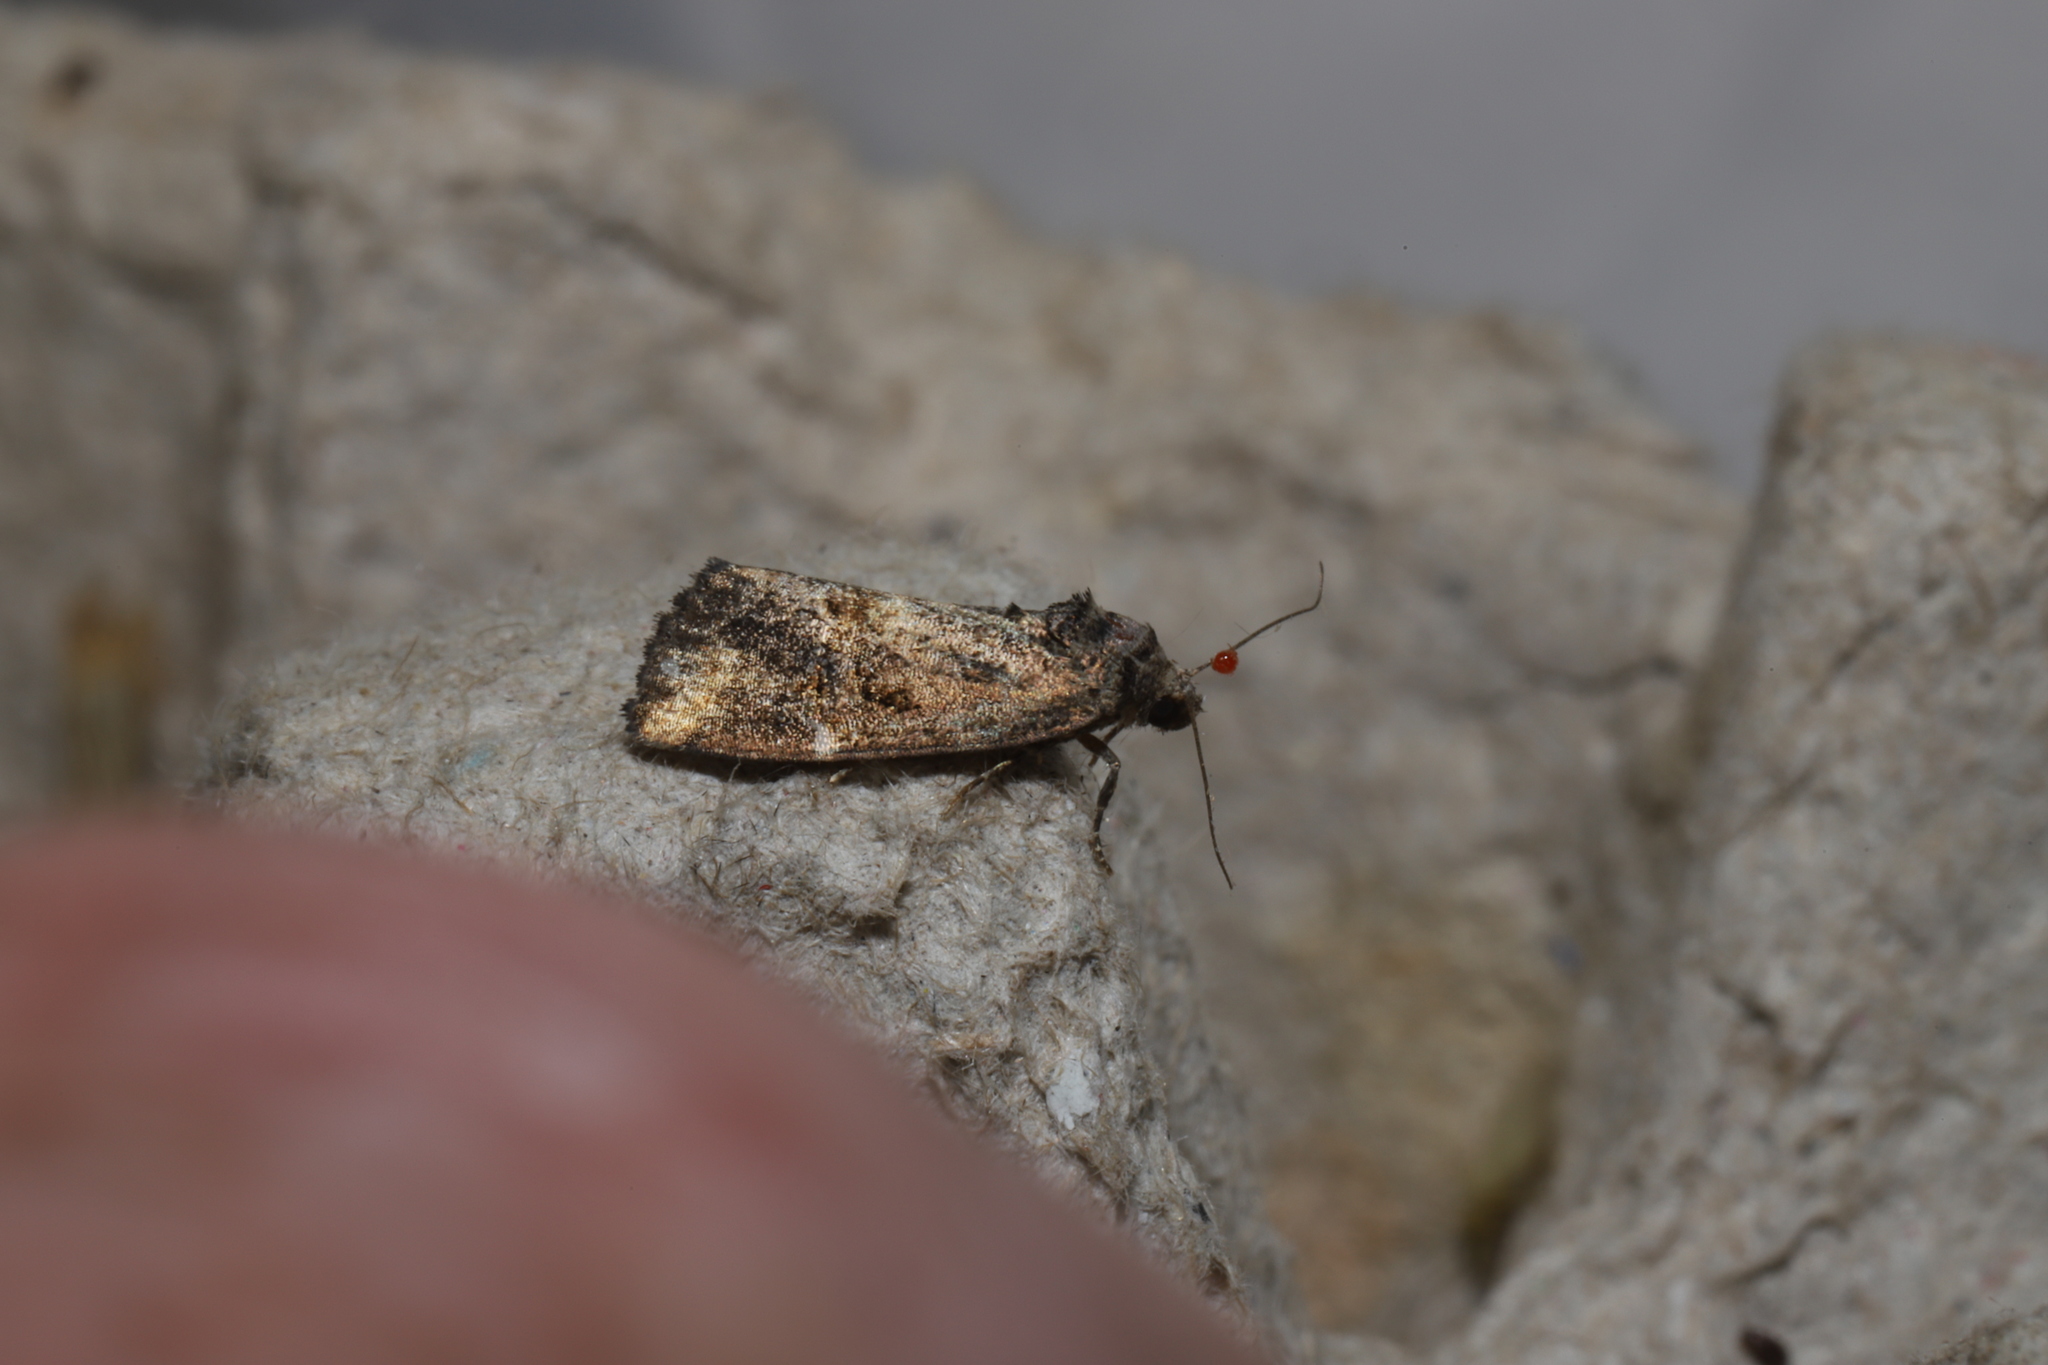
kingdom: Animalia
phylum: Arthropoda
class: Insecta
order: Lepidoptera
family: Noctuidae
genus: Elaphria
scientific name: Elaphria versicolor
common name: Fir harlequin
